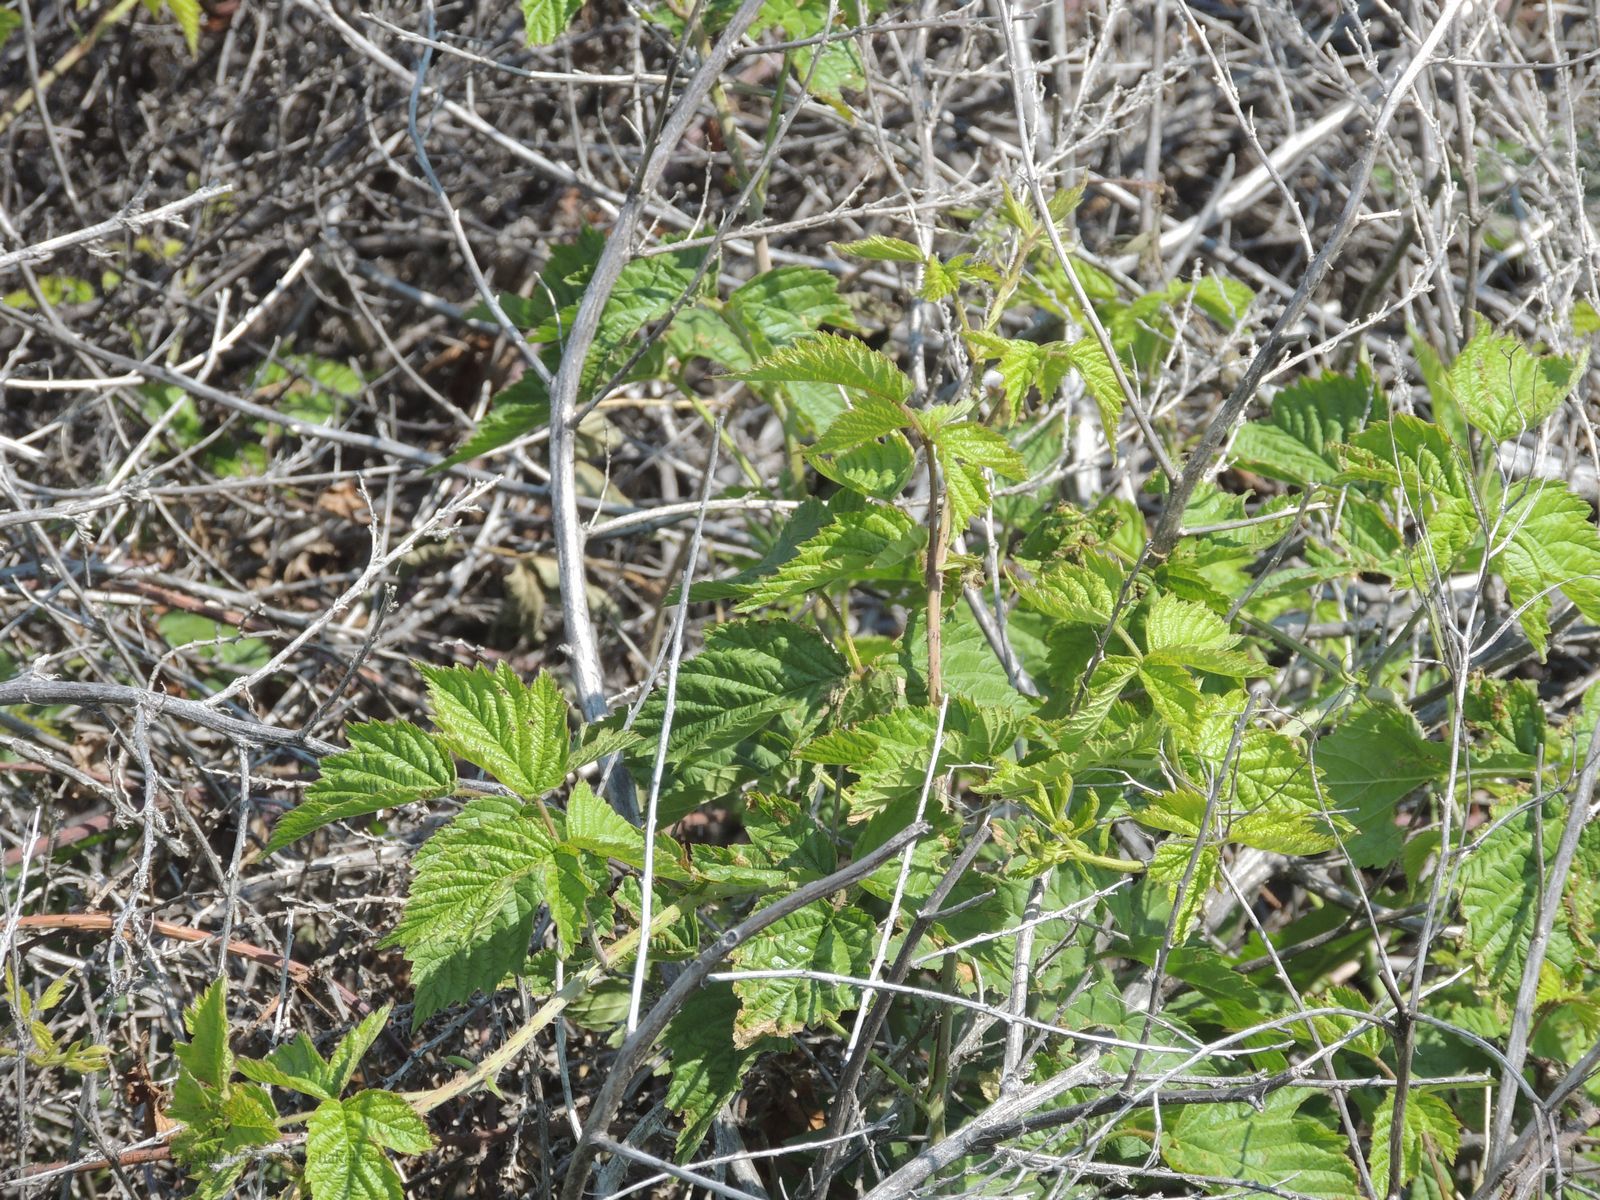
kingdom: Plantae
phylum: Tracheophyta
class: Magnoliopsida
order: Rosales
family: Rosaceae
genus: Rubus
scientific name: Rubus caesius
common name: Dewberry
